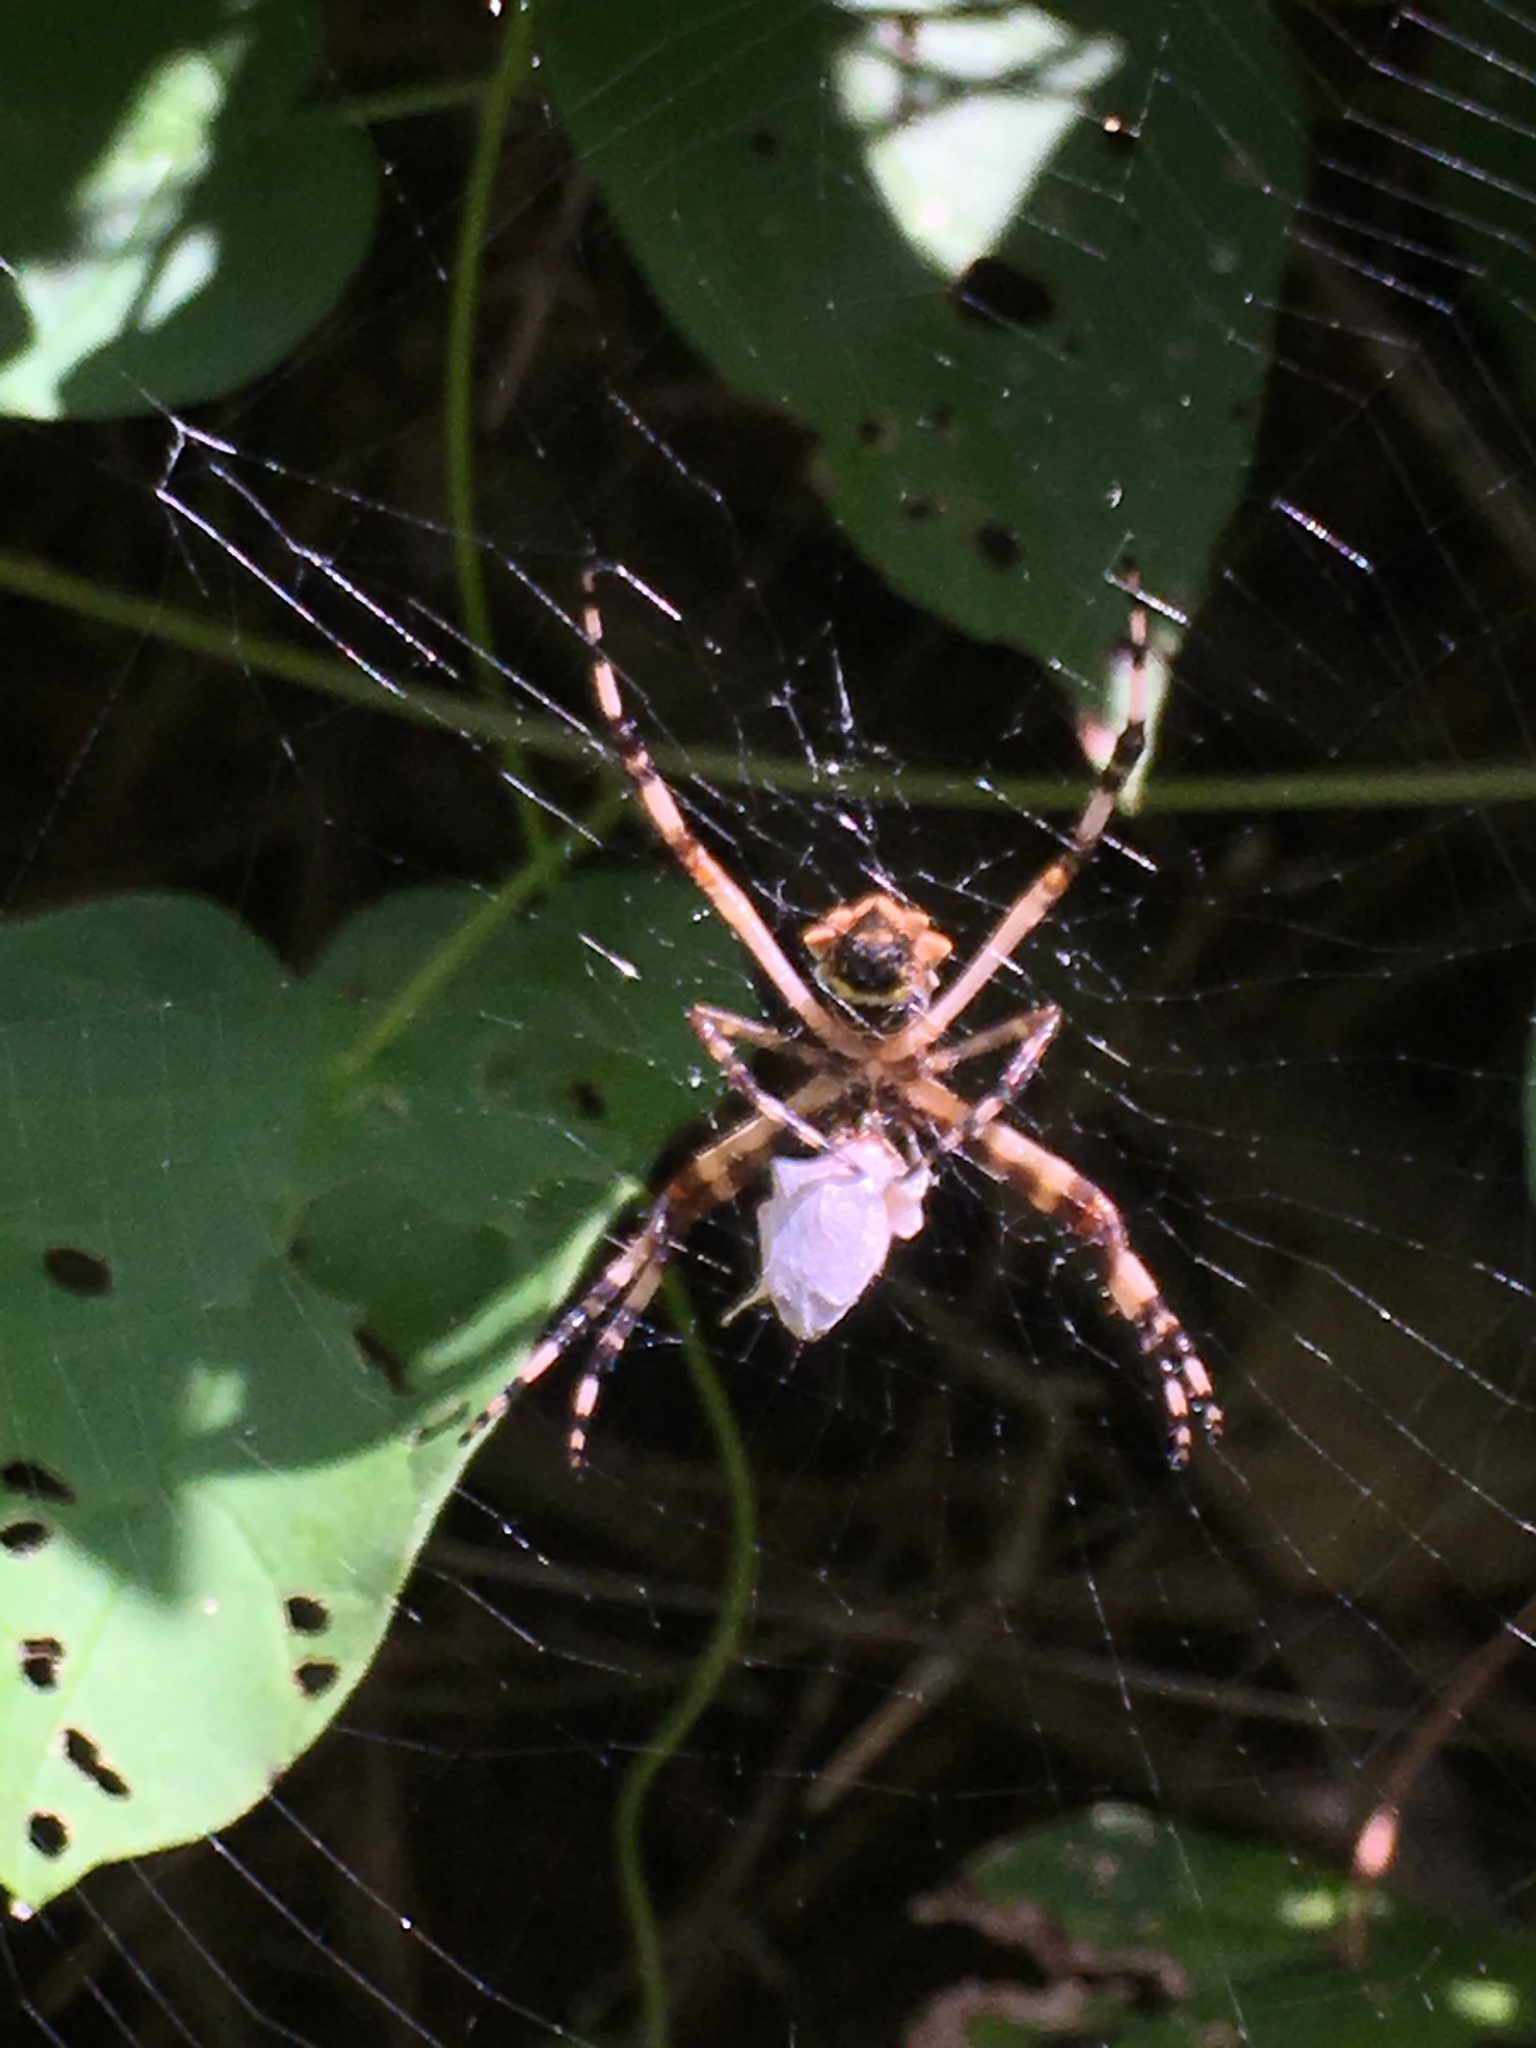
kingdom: Animalia
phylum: Arthropoda
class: Arachnida
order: Araneae
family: Araneidae
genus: Argiope
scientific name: Argiope argentata
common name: Orb weavers
